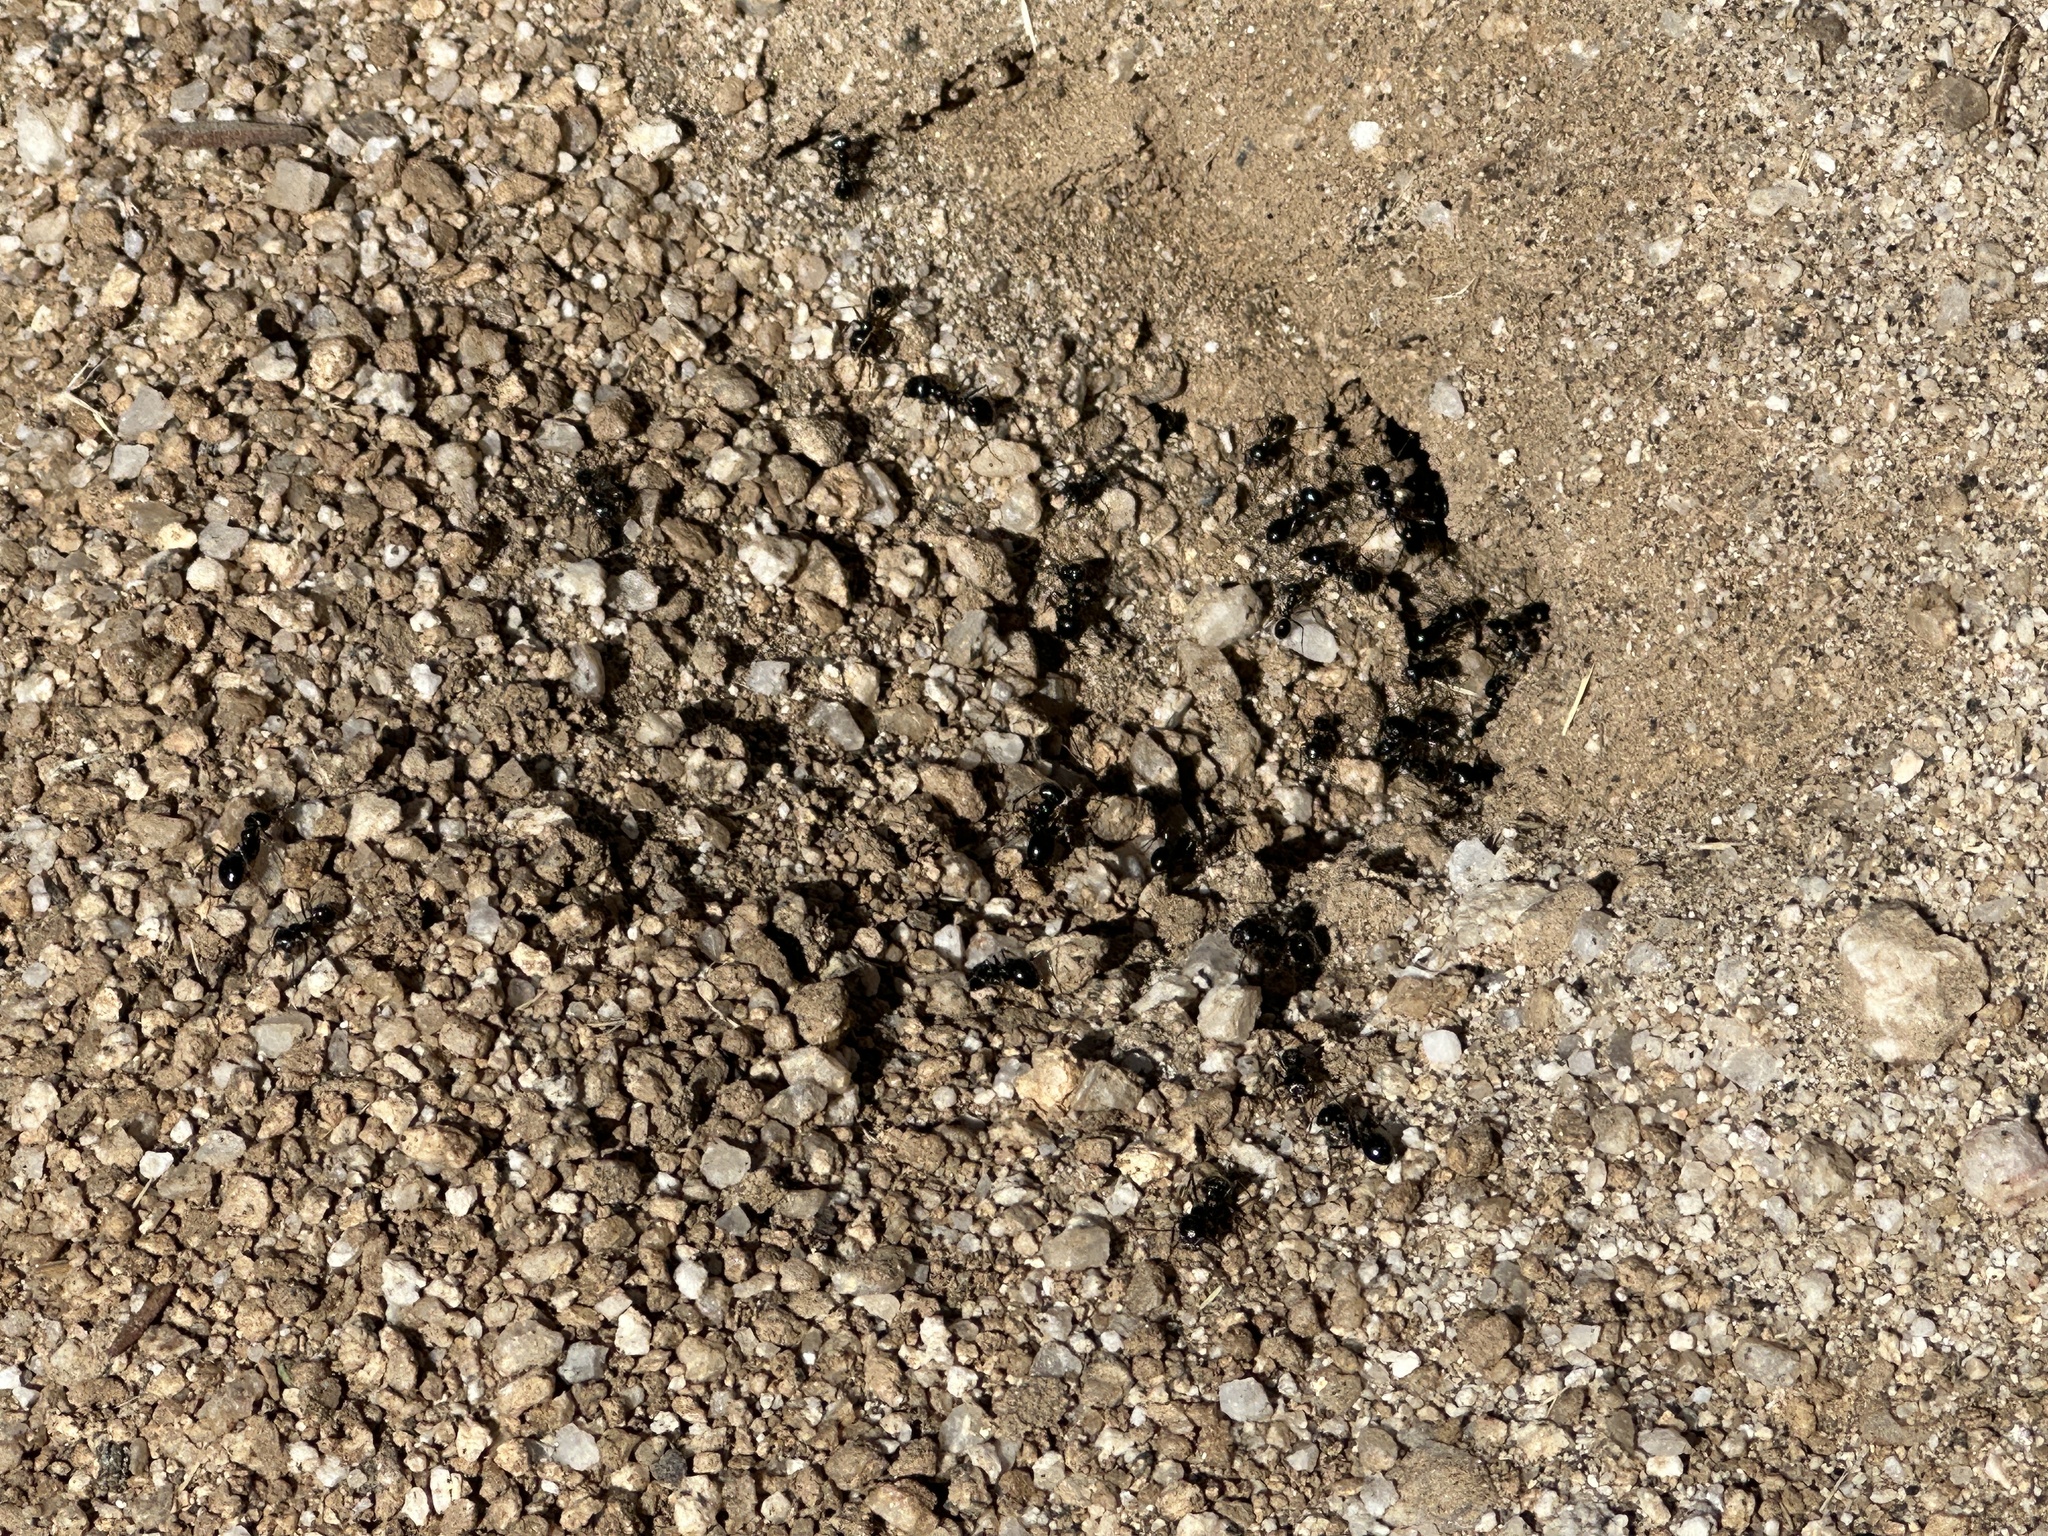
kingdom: Animalia
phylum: Arthropoda
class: Insecta
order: Hymenoptera
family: Formicidae
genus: Messor
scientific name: Messor pergandei
